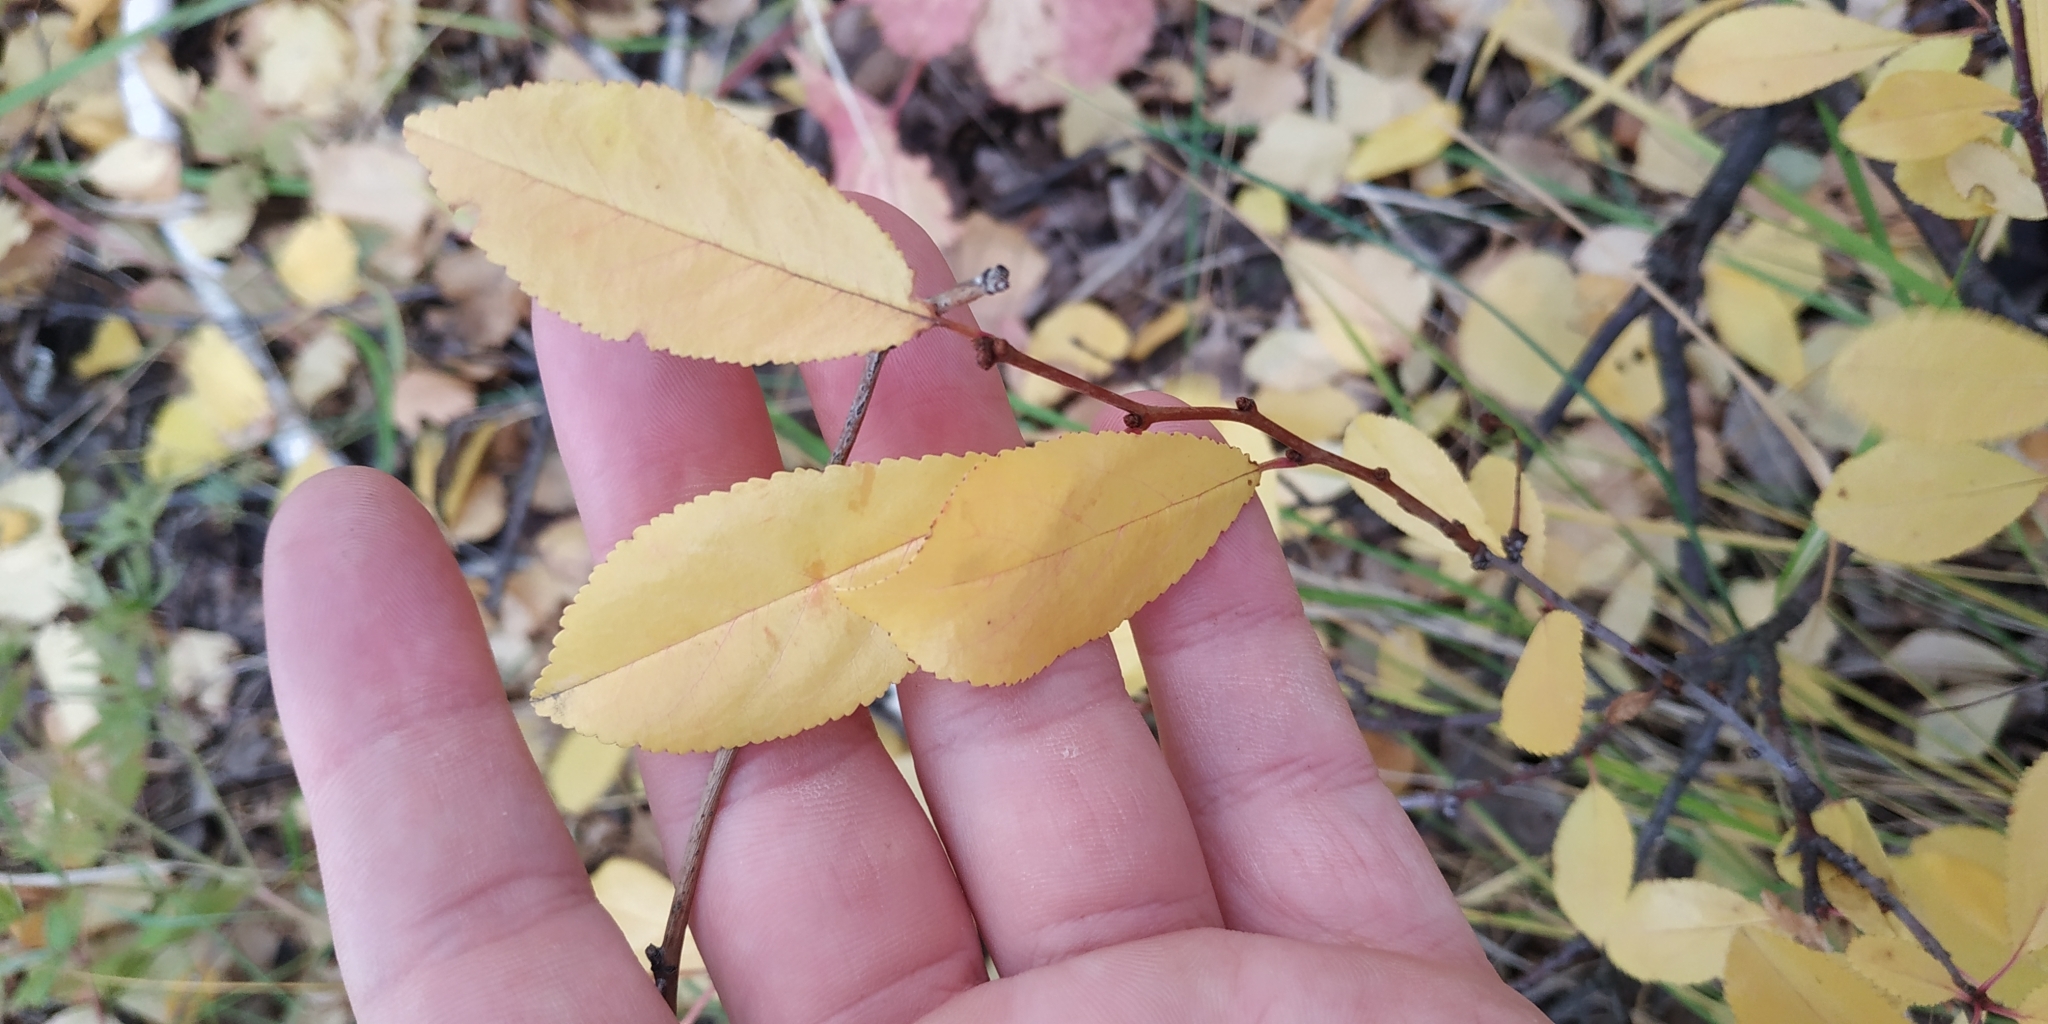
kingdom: Plantae
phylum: Tracheophyta
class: Magnoliopsida
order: Rosales
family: Rosaceae
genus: Prunus
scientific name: Prunus fruticosa
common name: European dwarf cherry
